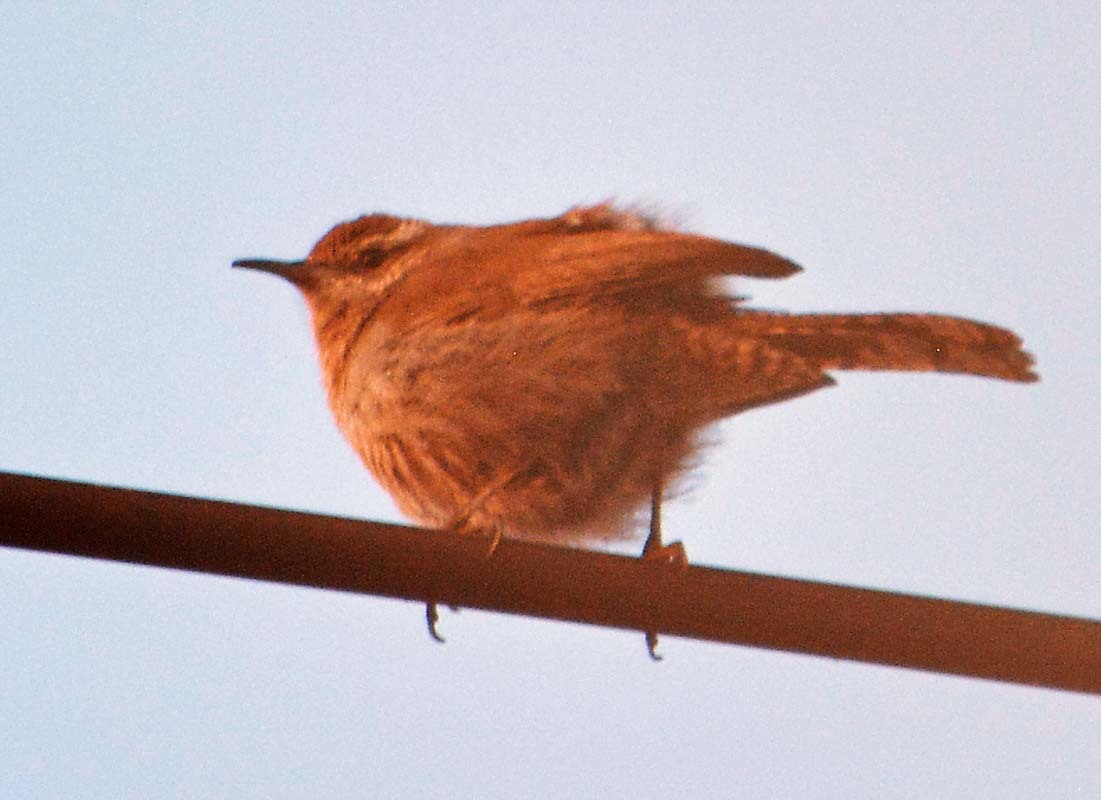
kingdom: Animalia
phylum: Chordata
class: Aves
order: Passeriformes
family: Troglodytidae
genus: Thryomanes
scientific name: Thryomanes bewickii
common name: Bewick's wren
